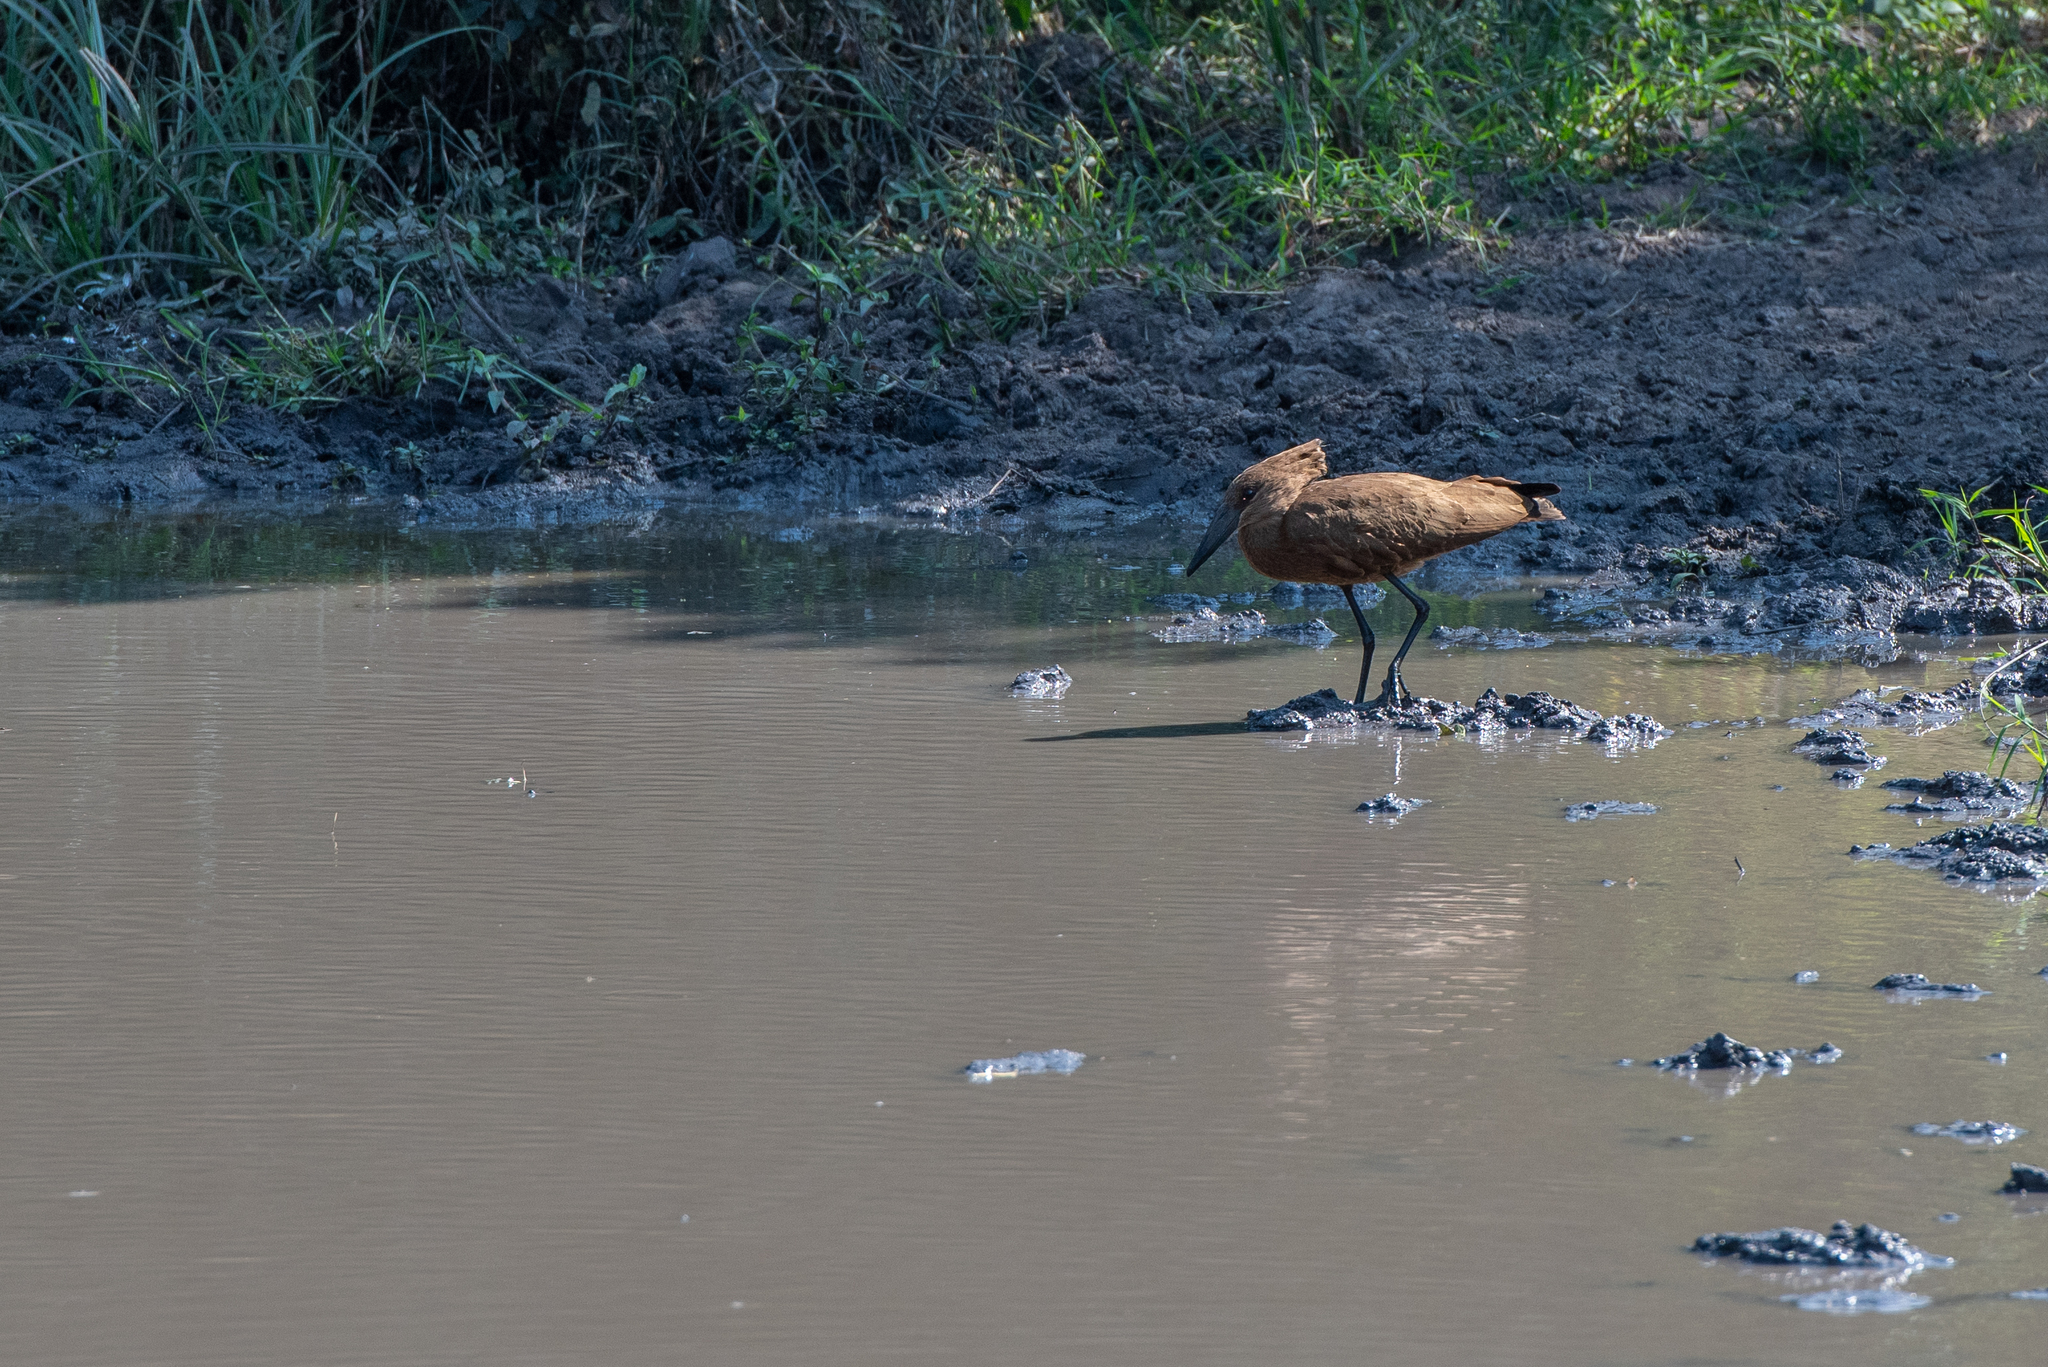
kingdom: Animalia
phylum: Chordata
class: Aves
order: Pelecaniformes
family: Scopidae
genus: Scopus
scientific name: Scopus umbretta
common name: Hamerkop
